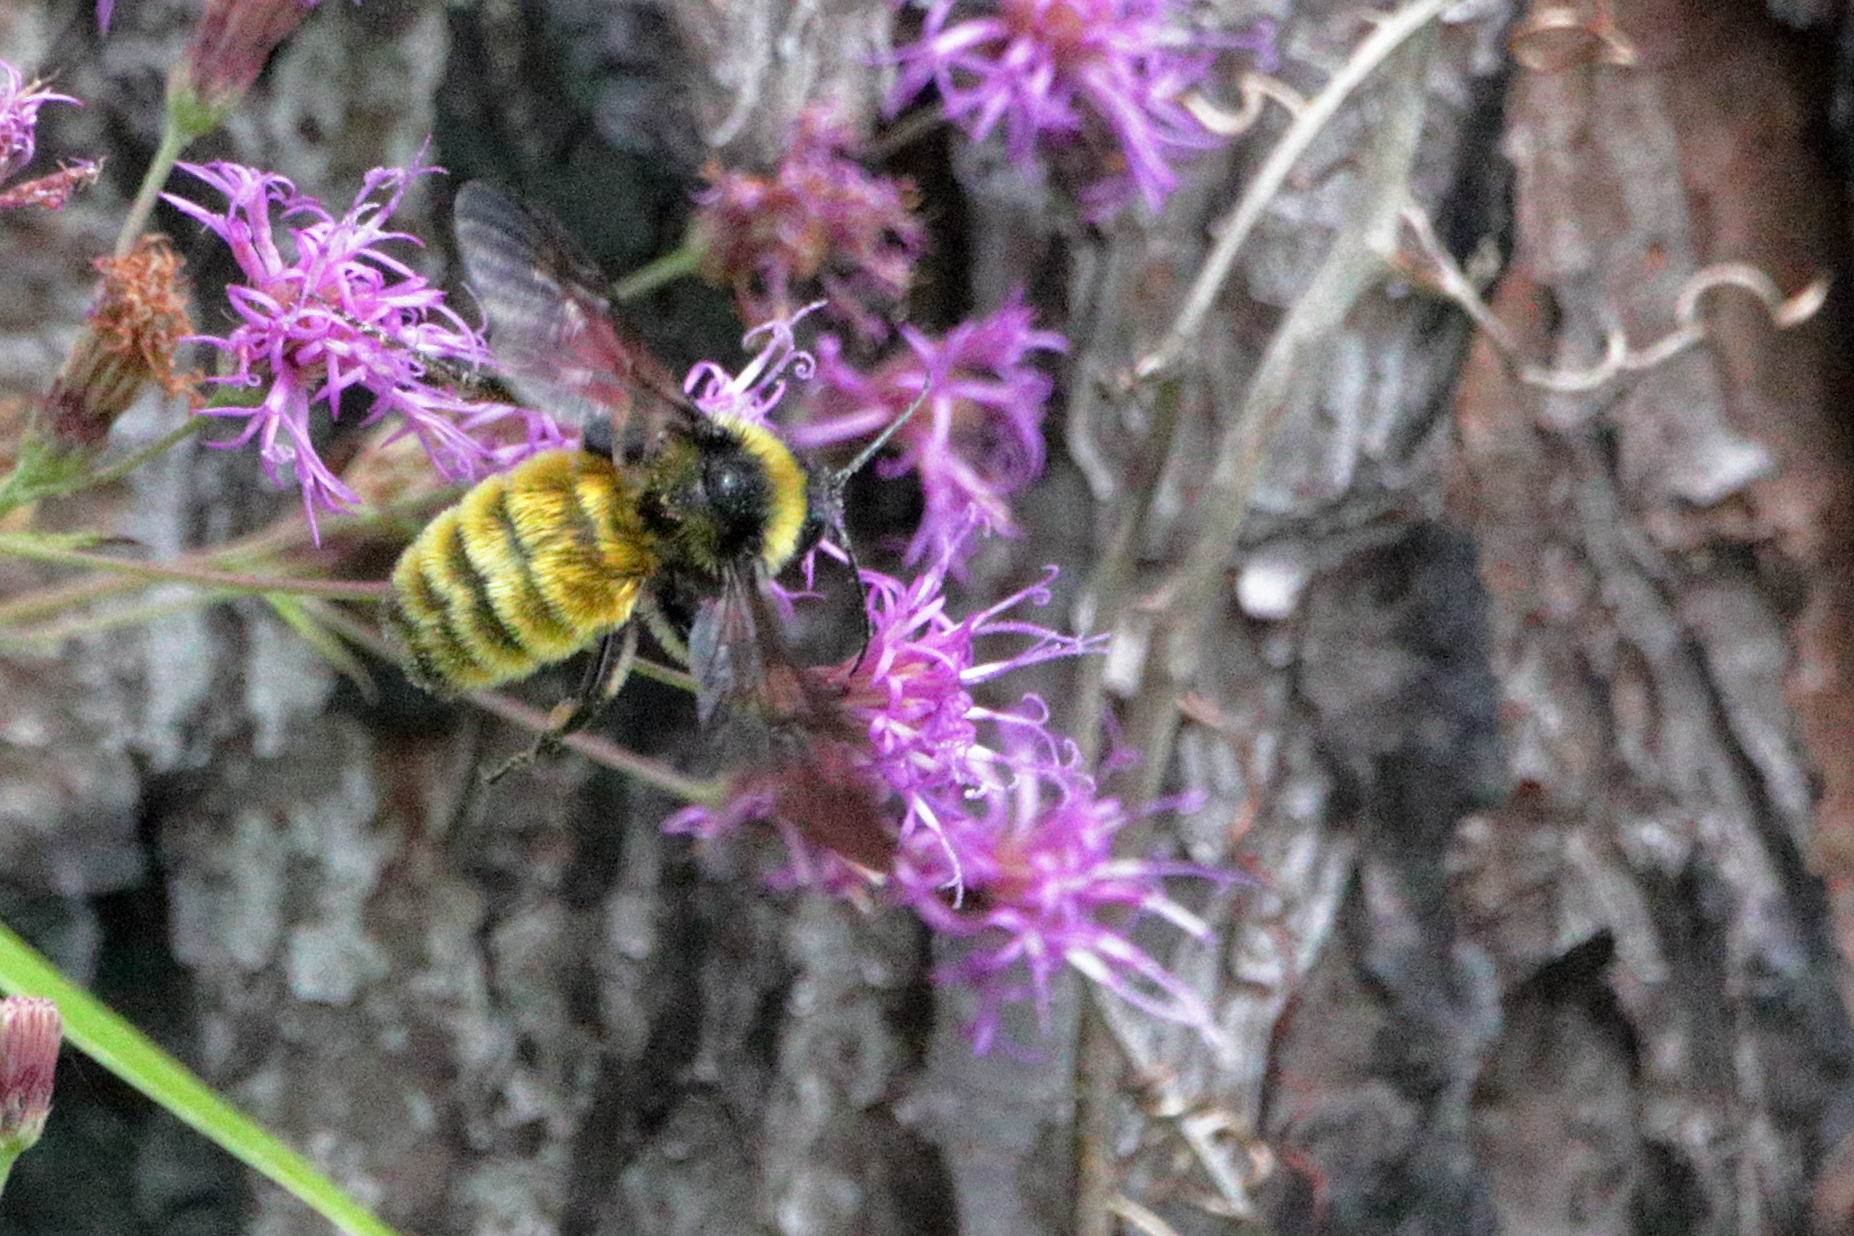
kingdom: Animalia
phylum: Arthropoda
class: Insecta
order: Hymenoptera
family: Apidae
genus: Bombus
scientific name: Bombus pensylvanicus
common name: Bumble bee
